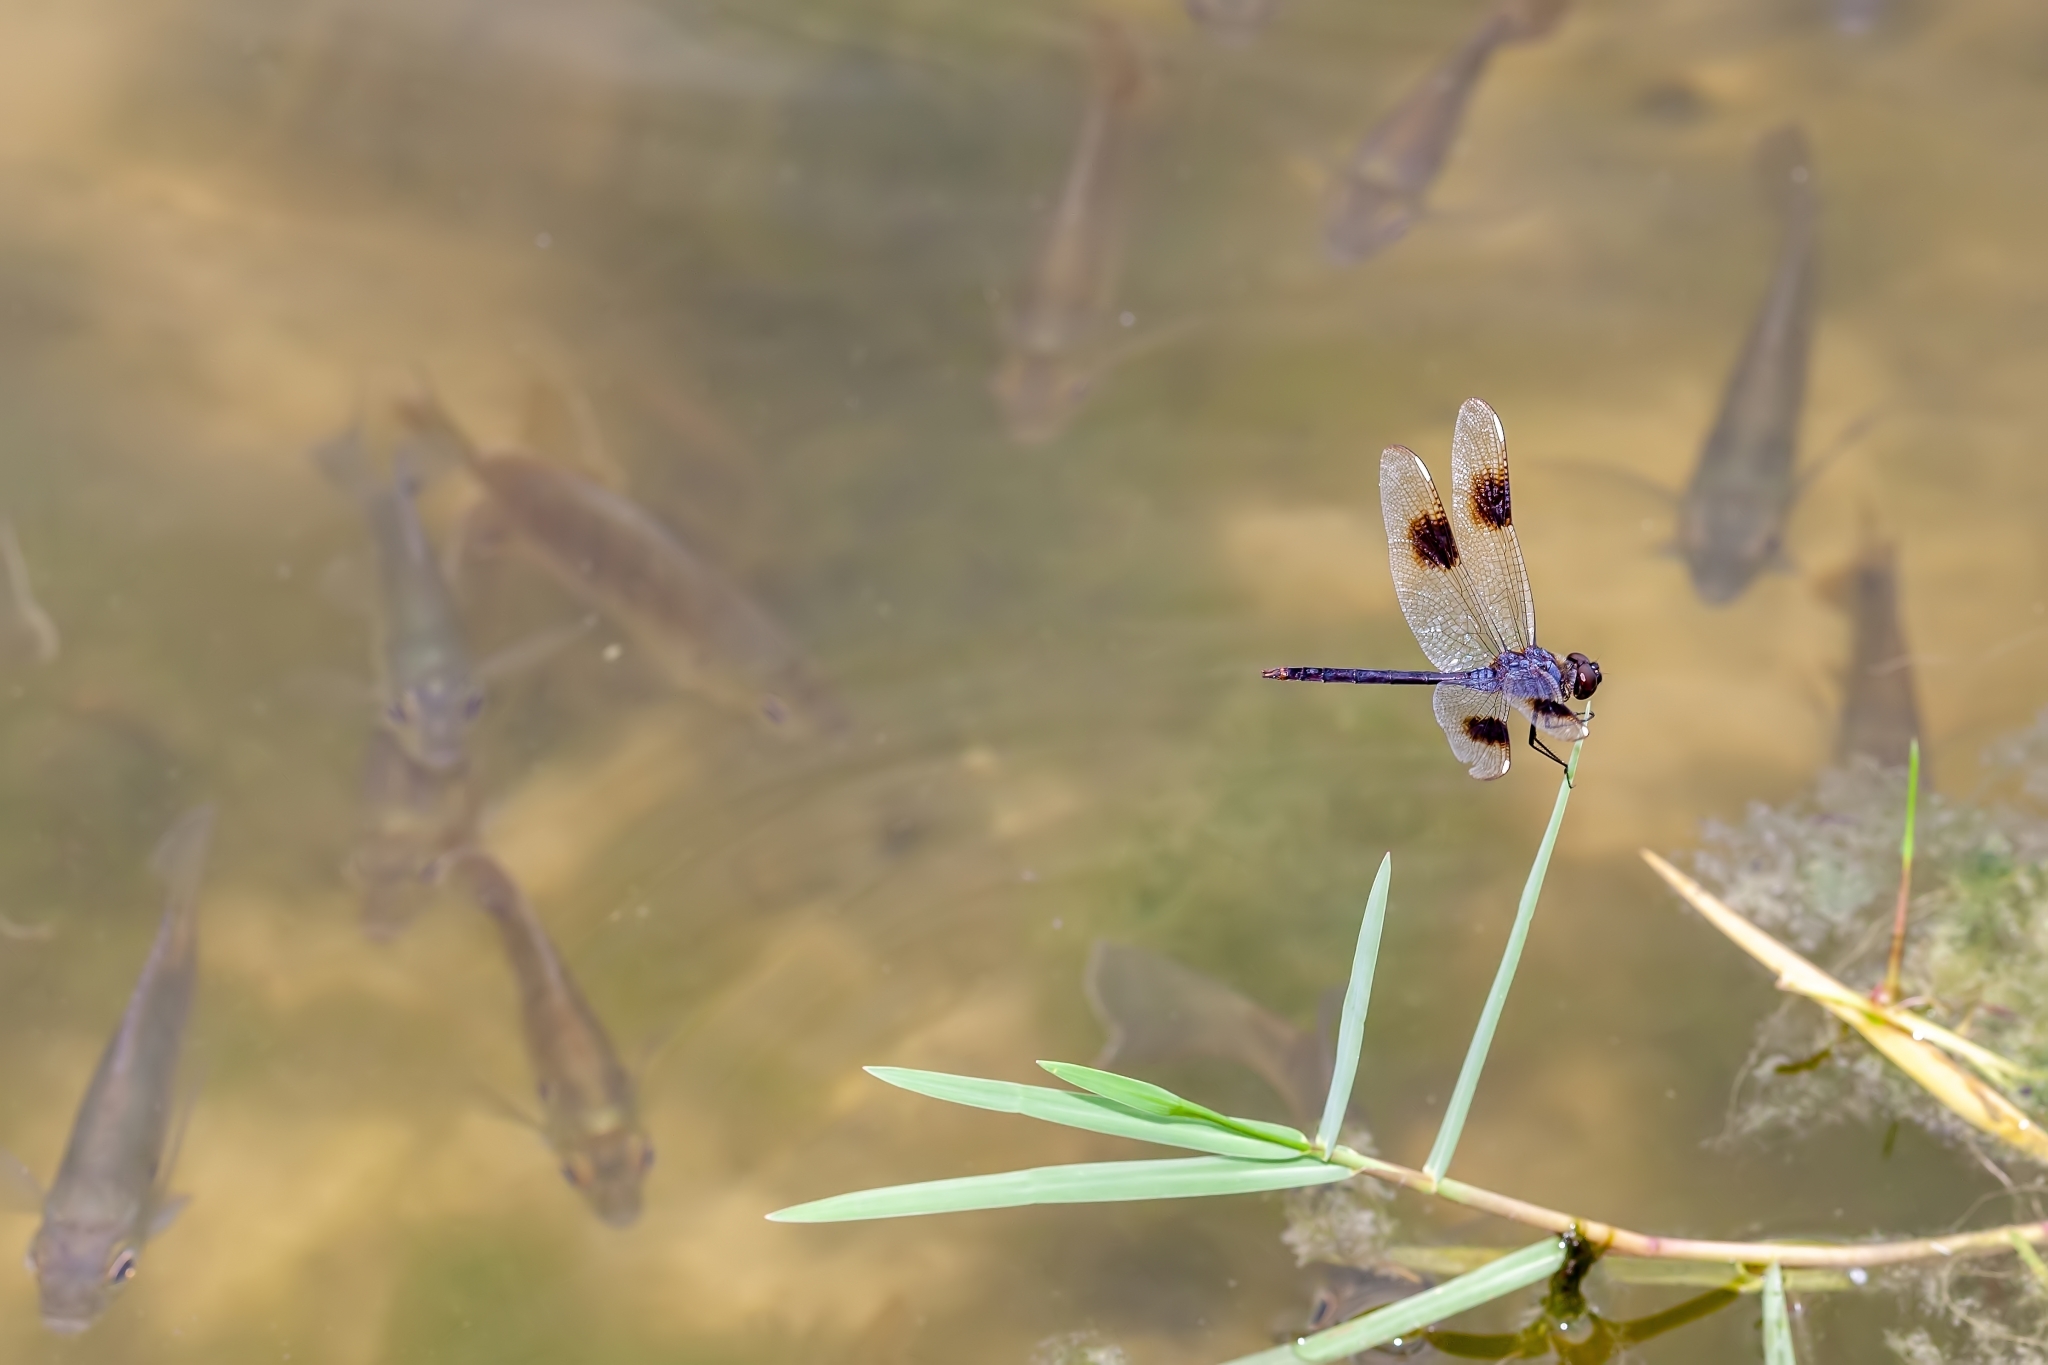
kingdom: Animalia
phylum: Arthropoda
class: Insecta
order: Odonata
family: Libellulidae
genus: Brachymesia
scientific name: Brachymesia gravida
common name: Four-spotted pennant
